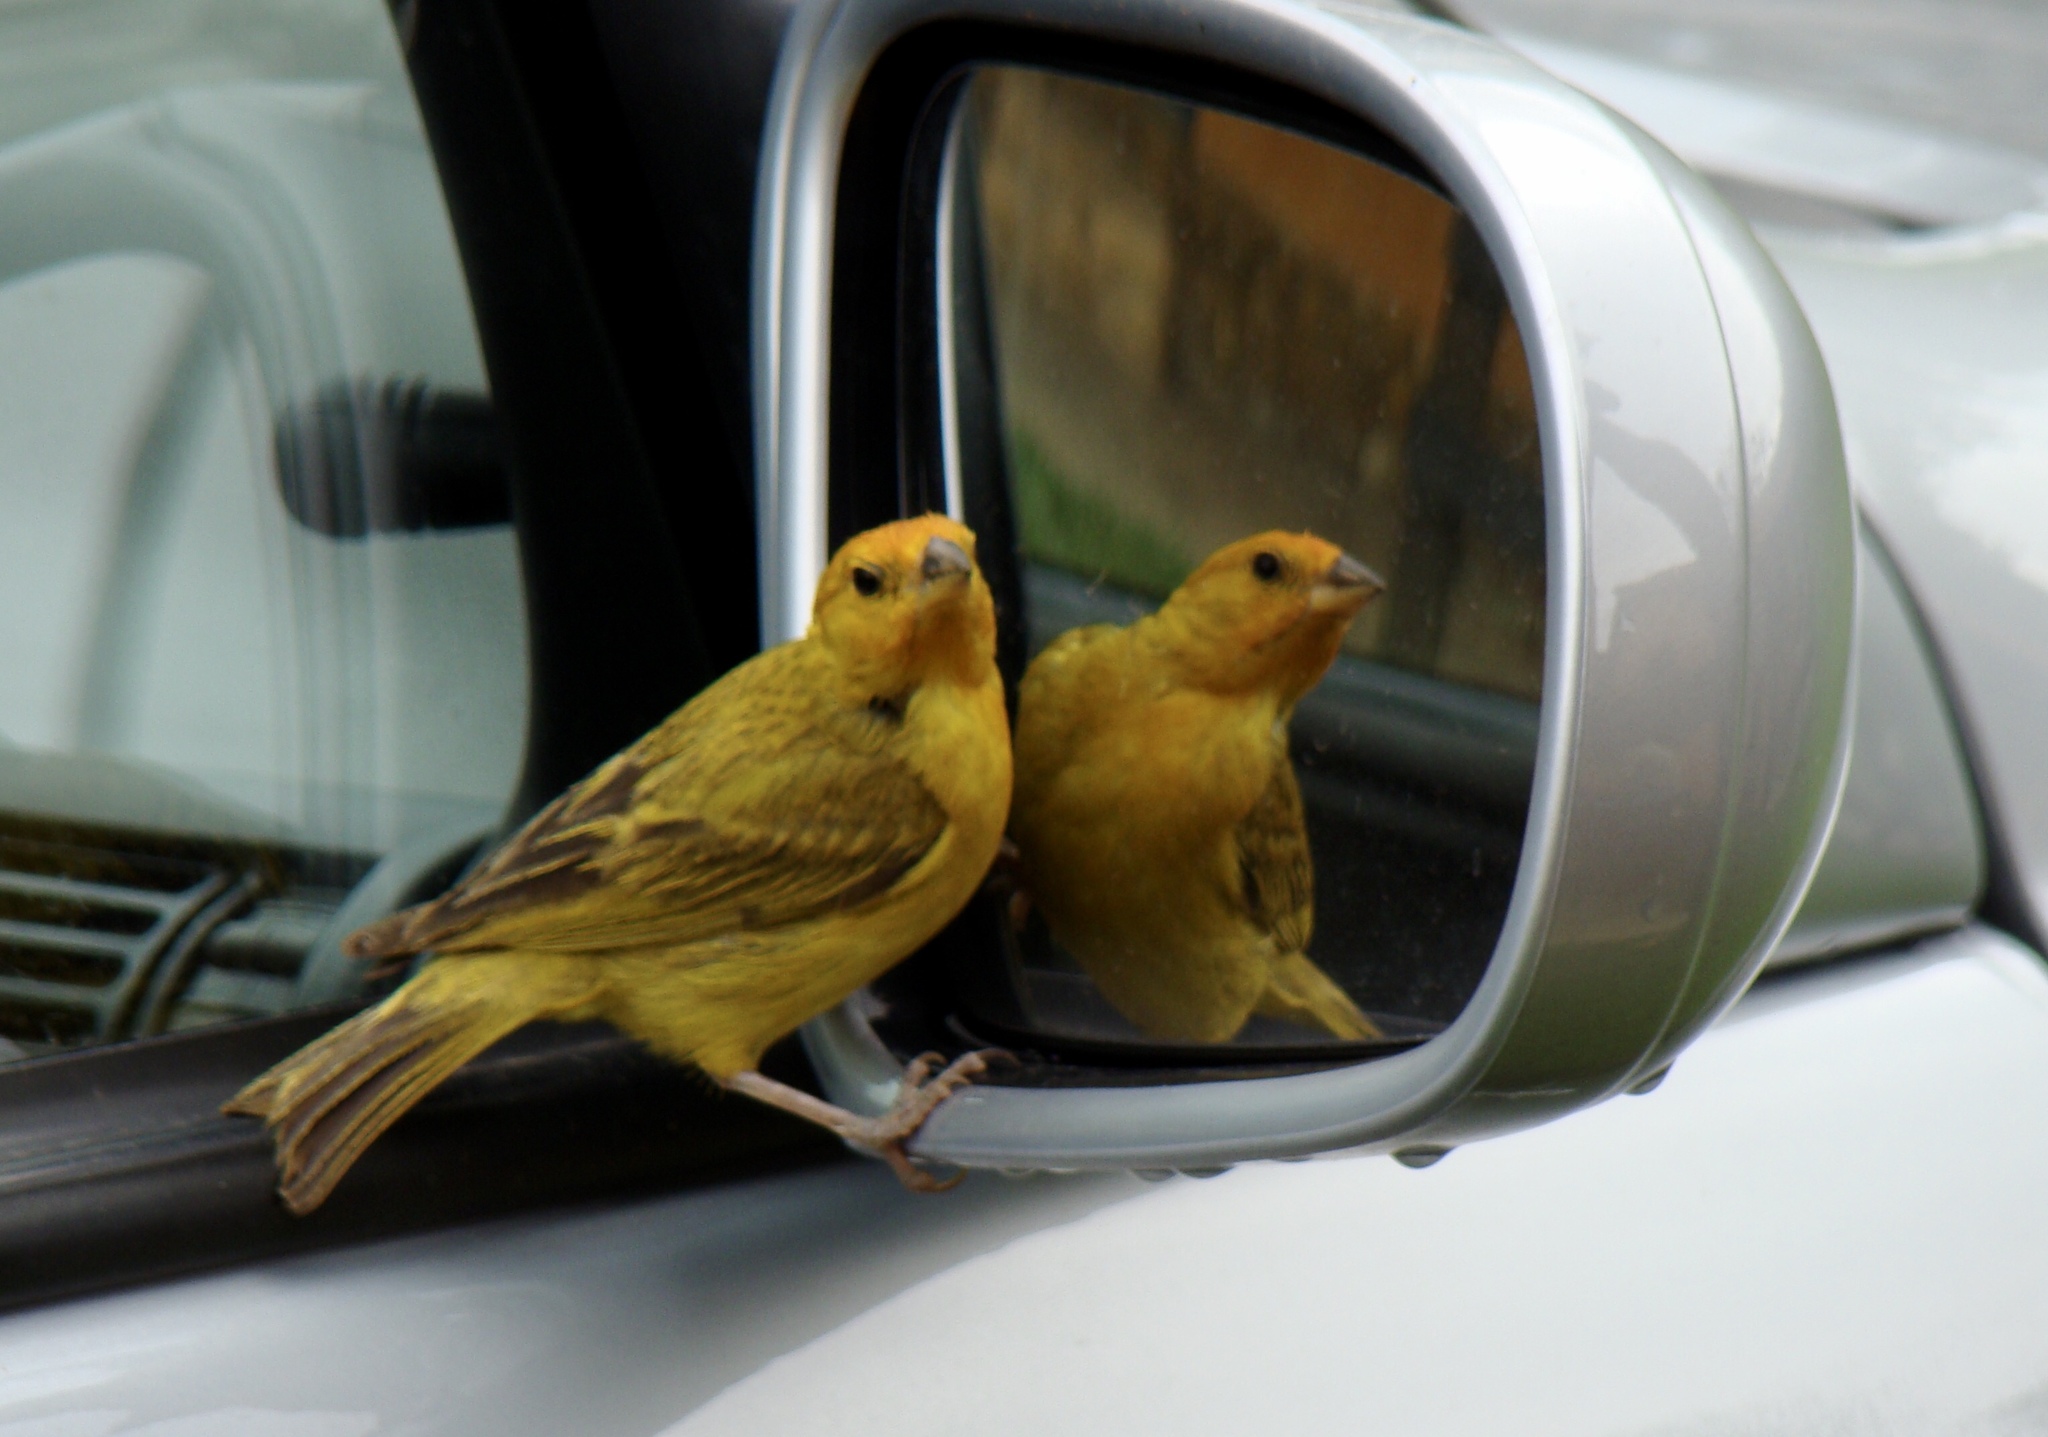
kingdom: Animalia
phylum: Chordata
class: Aves
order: Passeriformes
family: Thraupidae
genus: Sicalis
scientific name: Sicalis flaveola
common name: Saffron finch
